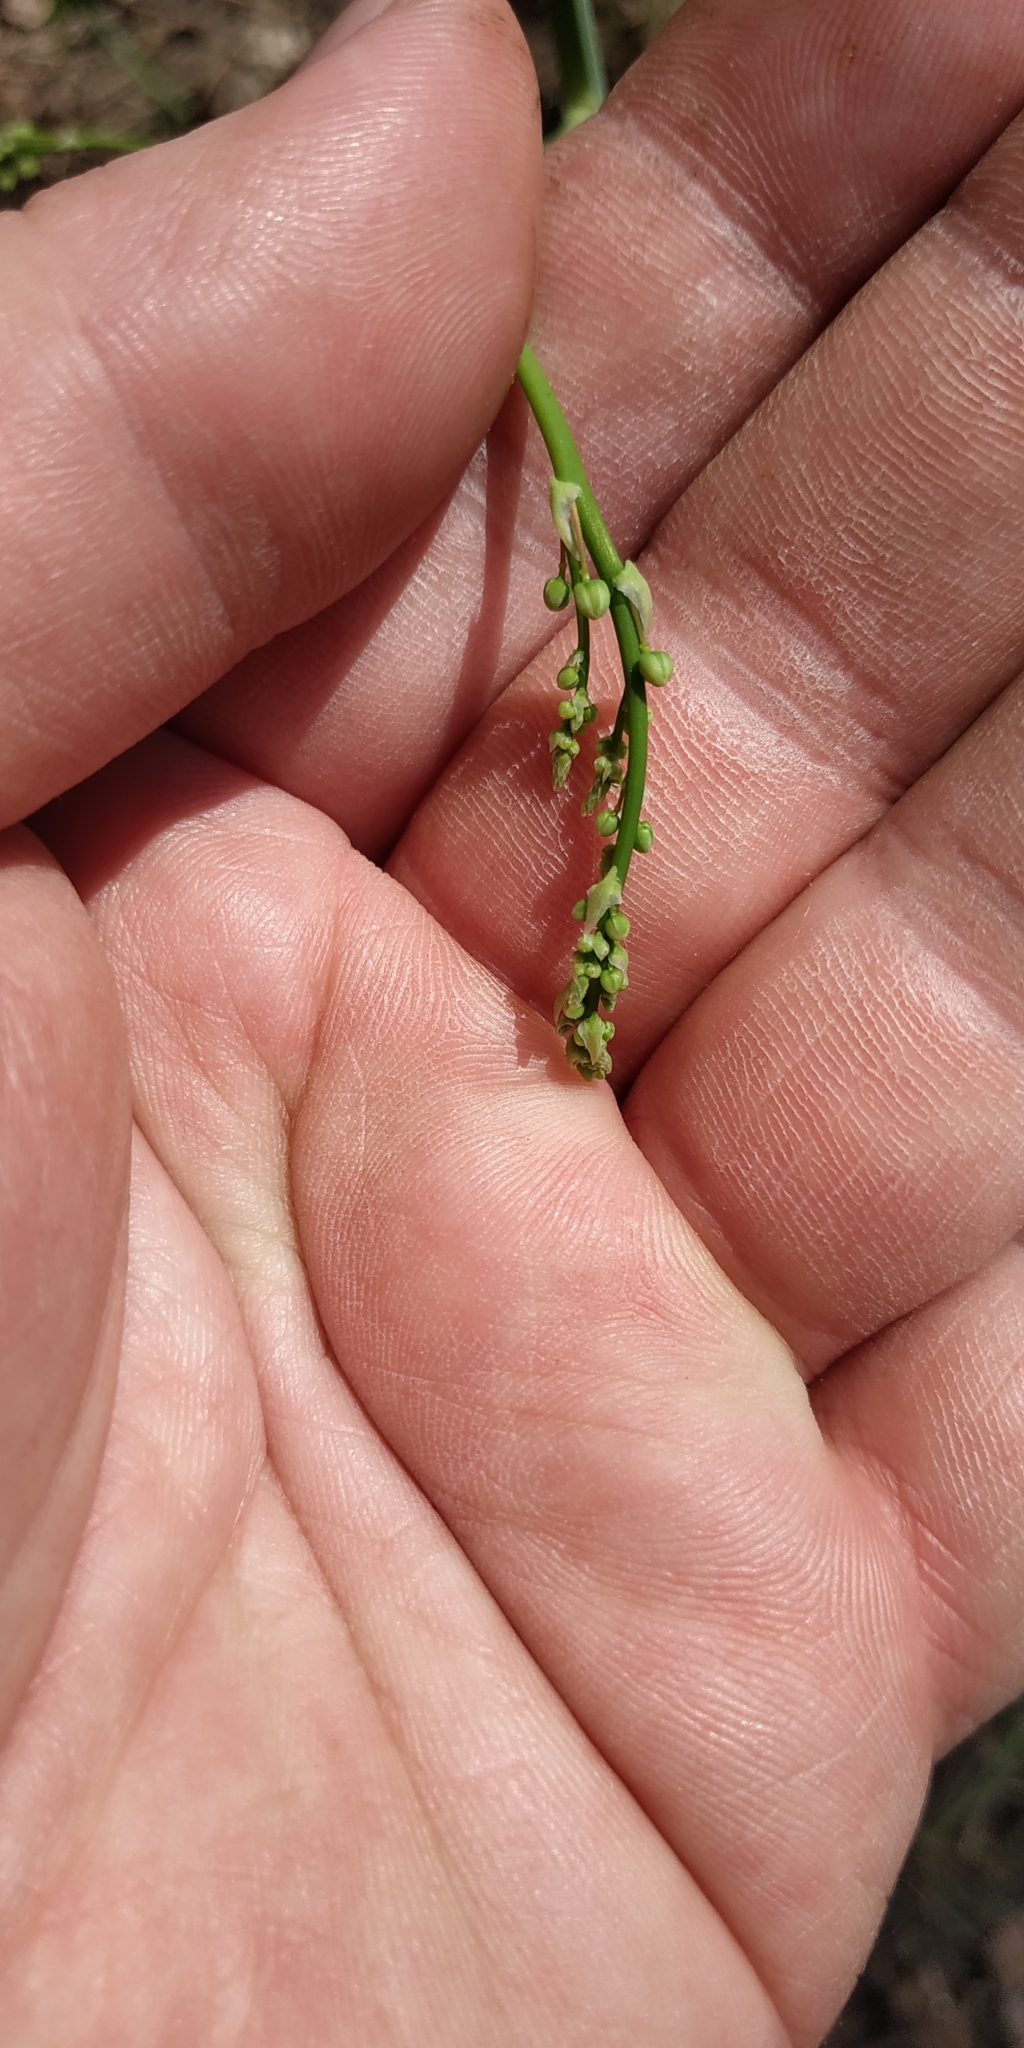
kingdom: Plantae
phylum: Tracheophyta
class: Liliopsida
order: Asparagales
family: Asparagaceae
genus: Asparagus
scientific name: Asparagus officinalis
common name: Garden asparagus
